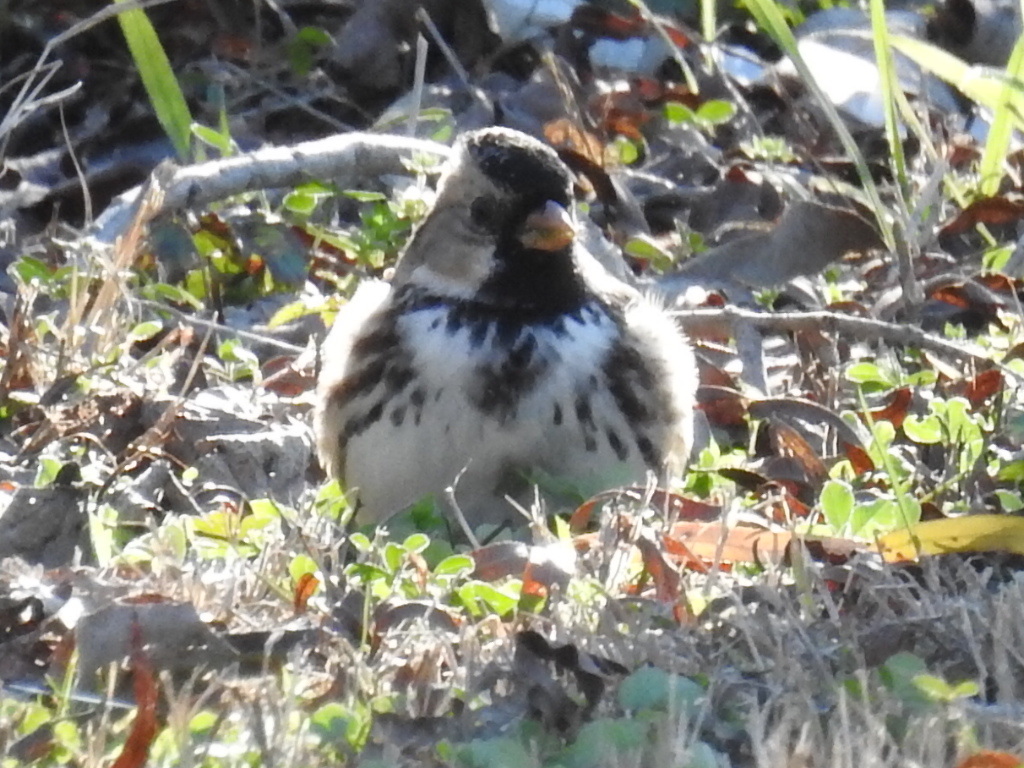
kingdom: Animalia
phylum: Chordata
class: Aves
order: Passeriformes
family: Passerellidae
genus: Zonotrichia
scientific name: Zonotrichia querula
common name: Harris's sparrow
